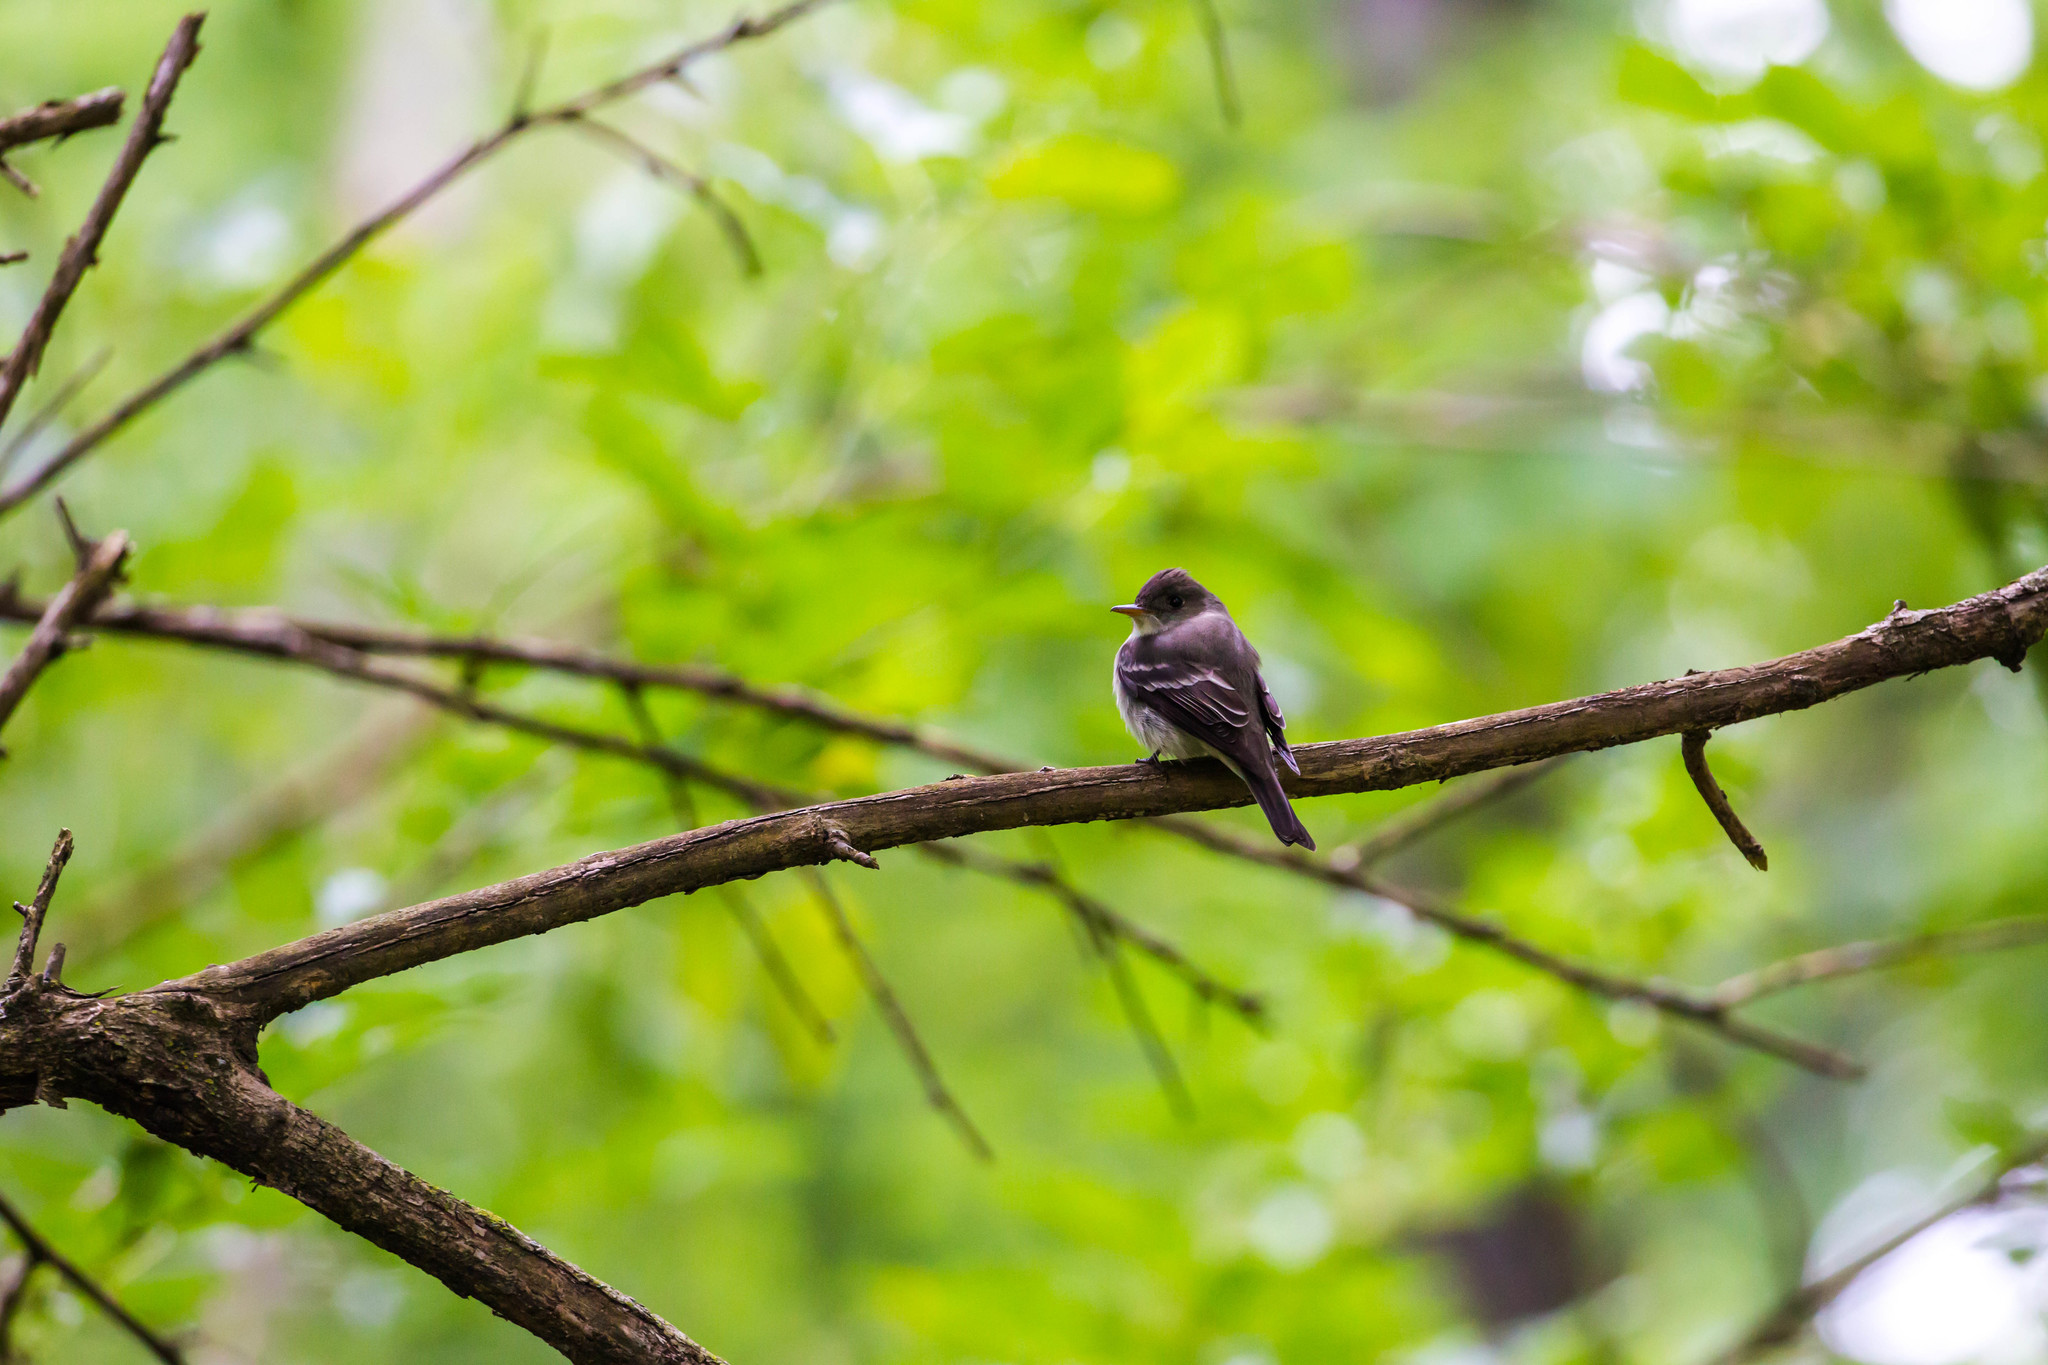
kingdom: Animalia
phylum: Chordata
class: Aves
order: Passeriformes
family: Tyrannidae
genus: Contopus
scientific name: Contopus virens
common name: Eastern wood-pewee
